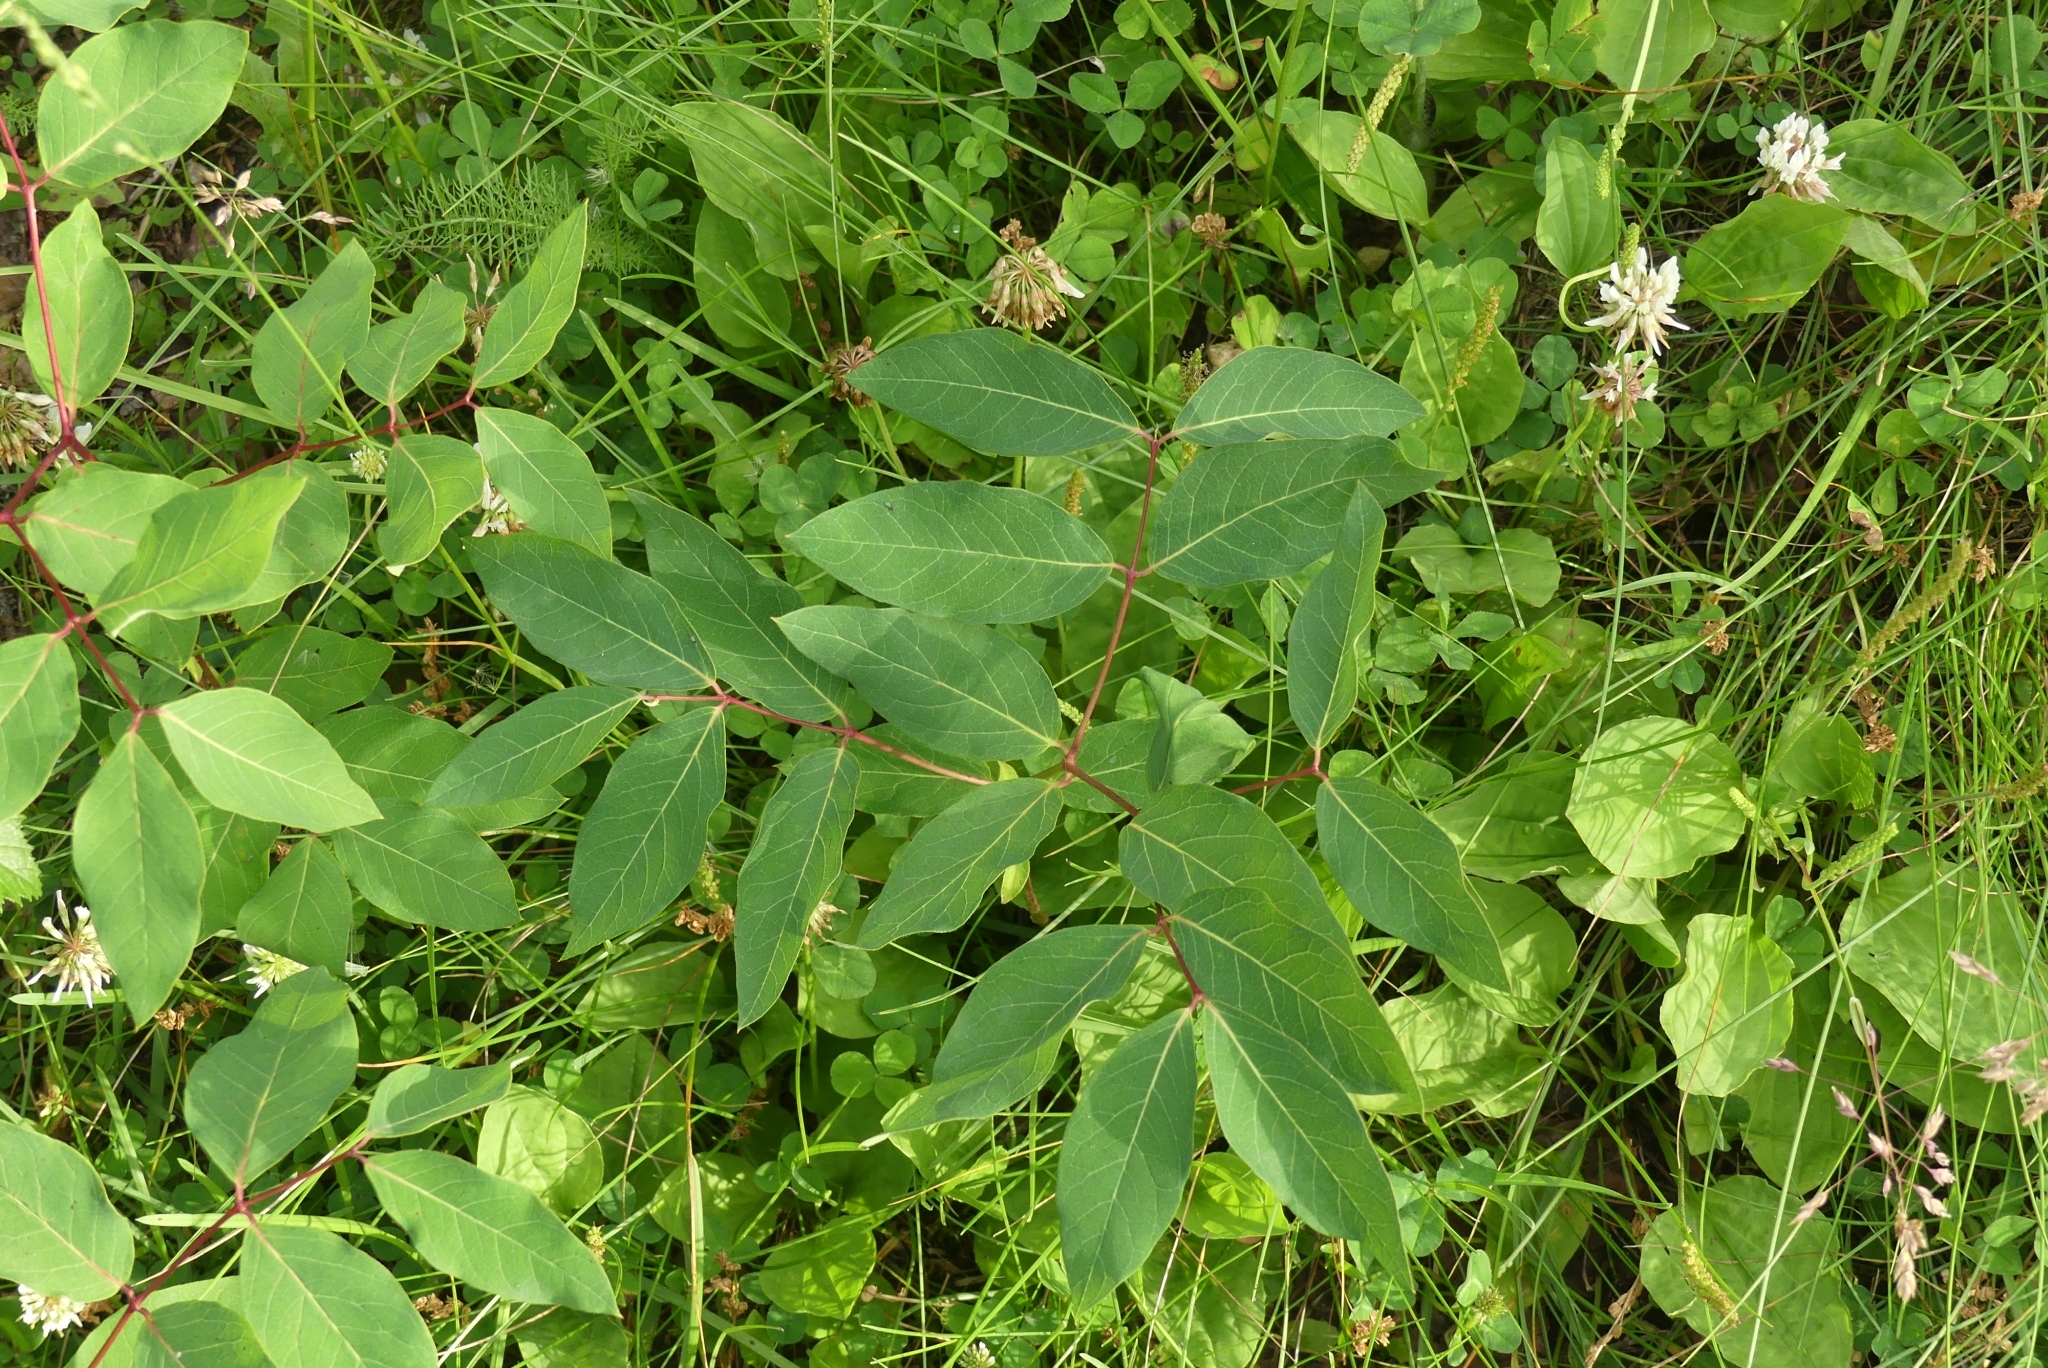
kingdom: Plantae
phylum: Tracheophyta
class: Magnoliopsida
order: Gentianales
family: Apocynaceae
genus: Apocynum
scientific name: Apocynum androsaemifolium
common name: Spreading dogbane
